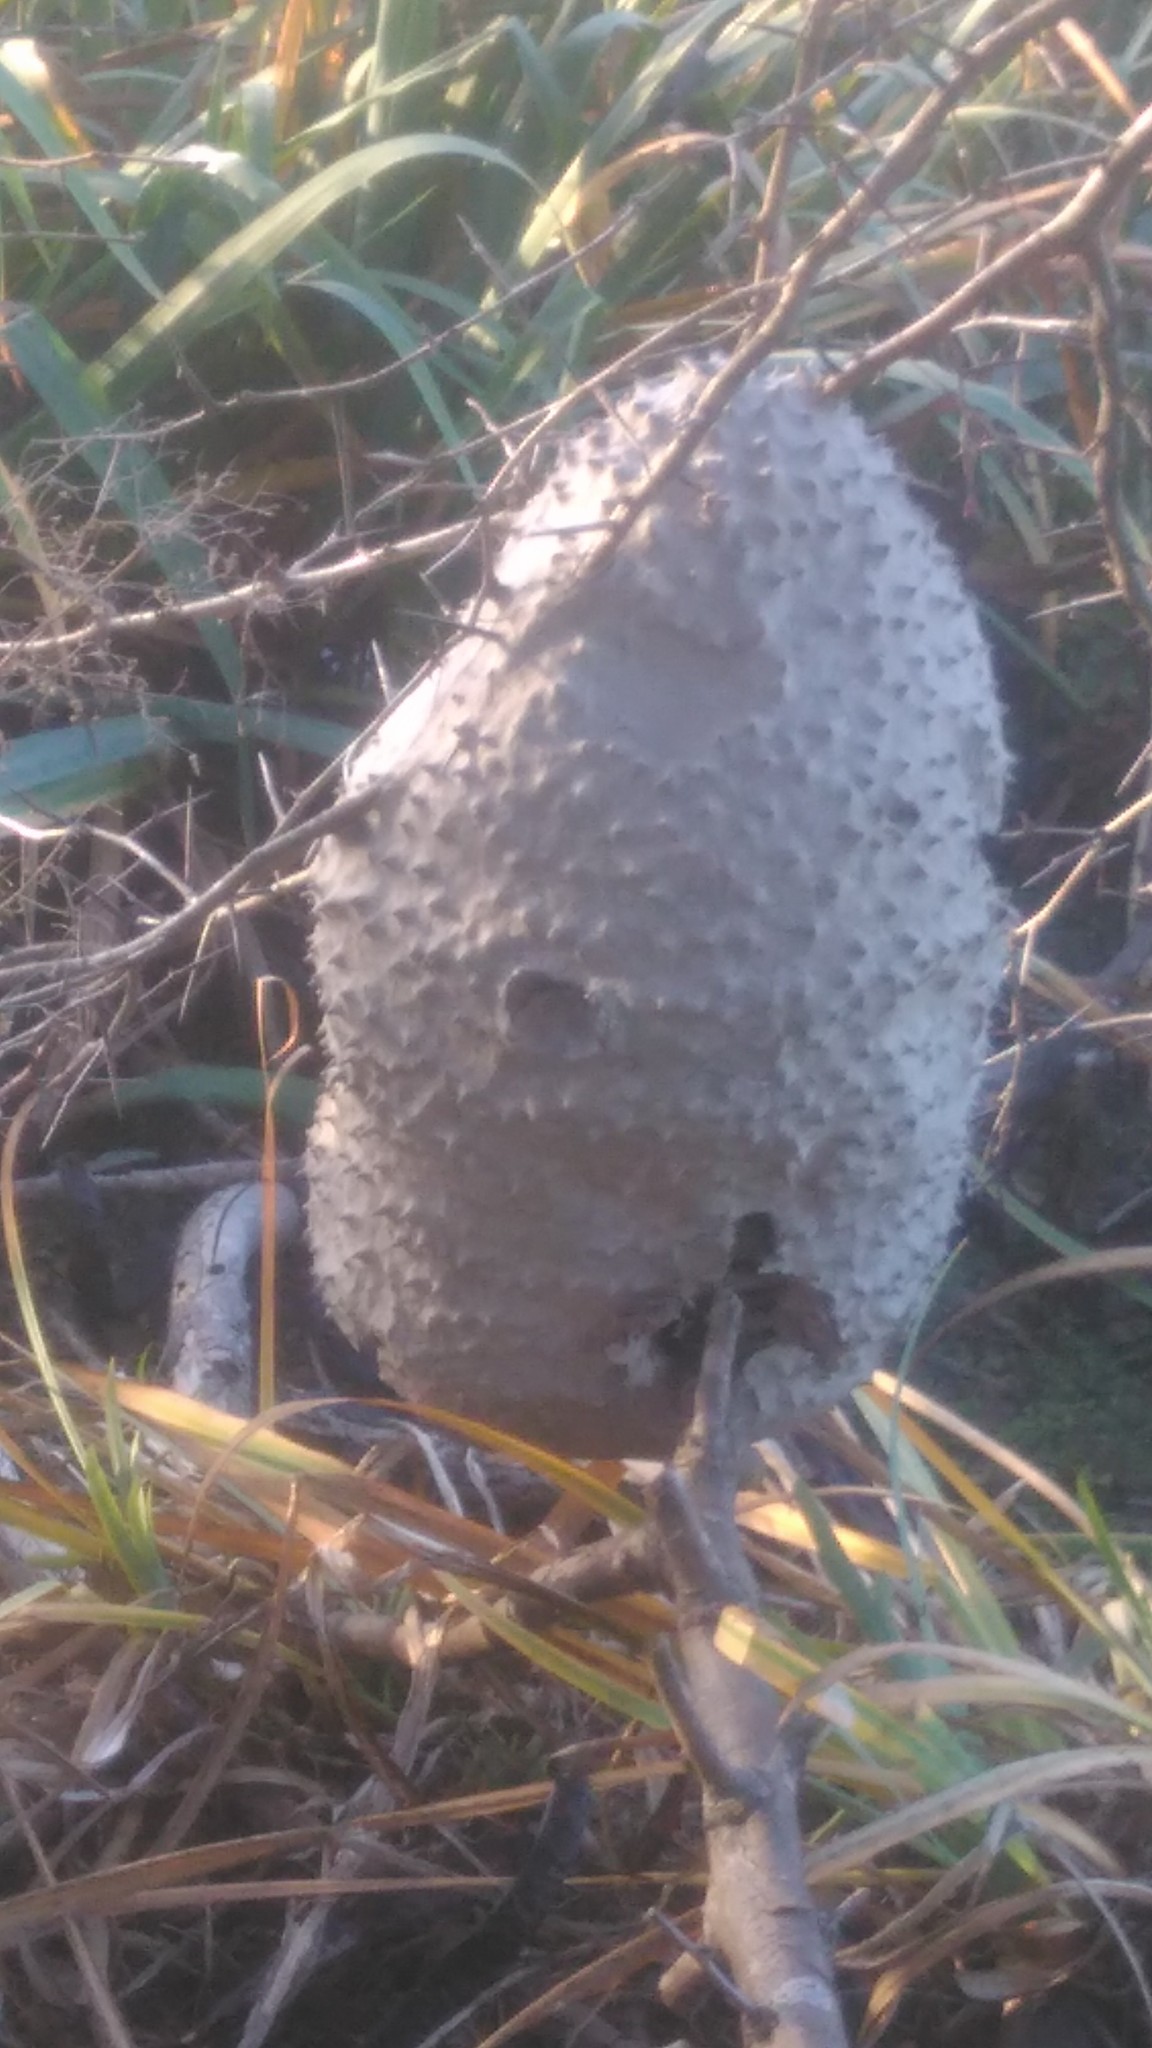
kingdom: Animalia
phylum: Arthropoda
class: Insecta
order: Hymenoptera
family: Eumenidae
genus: Polybia
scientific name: Polybia scutellaris
